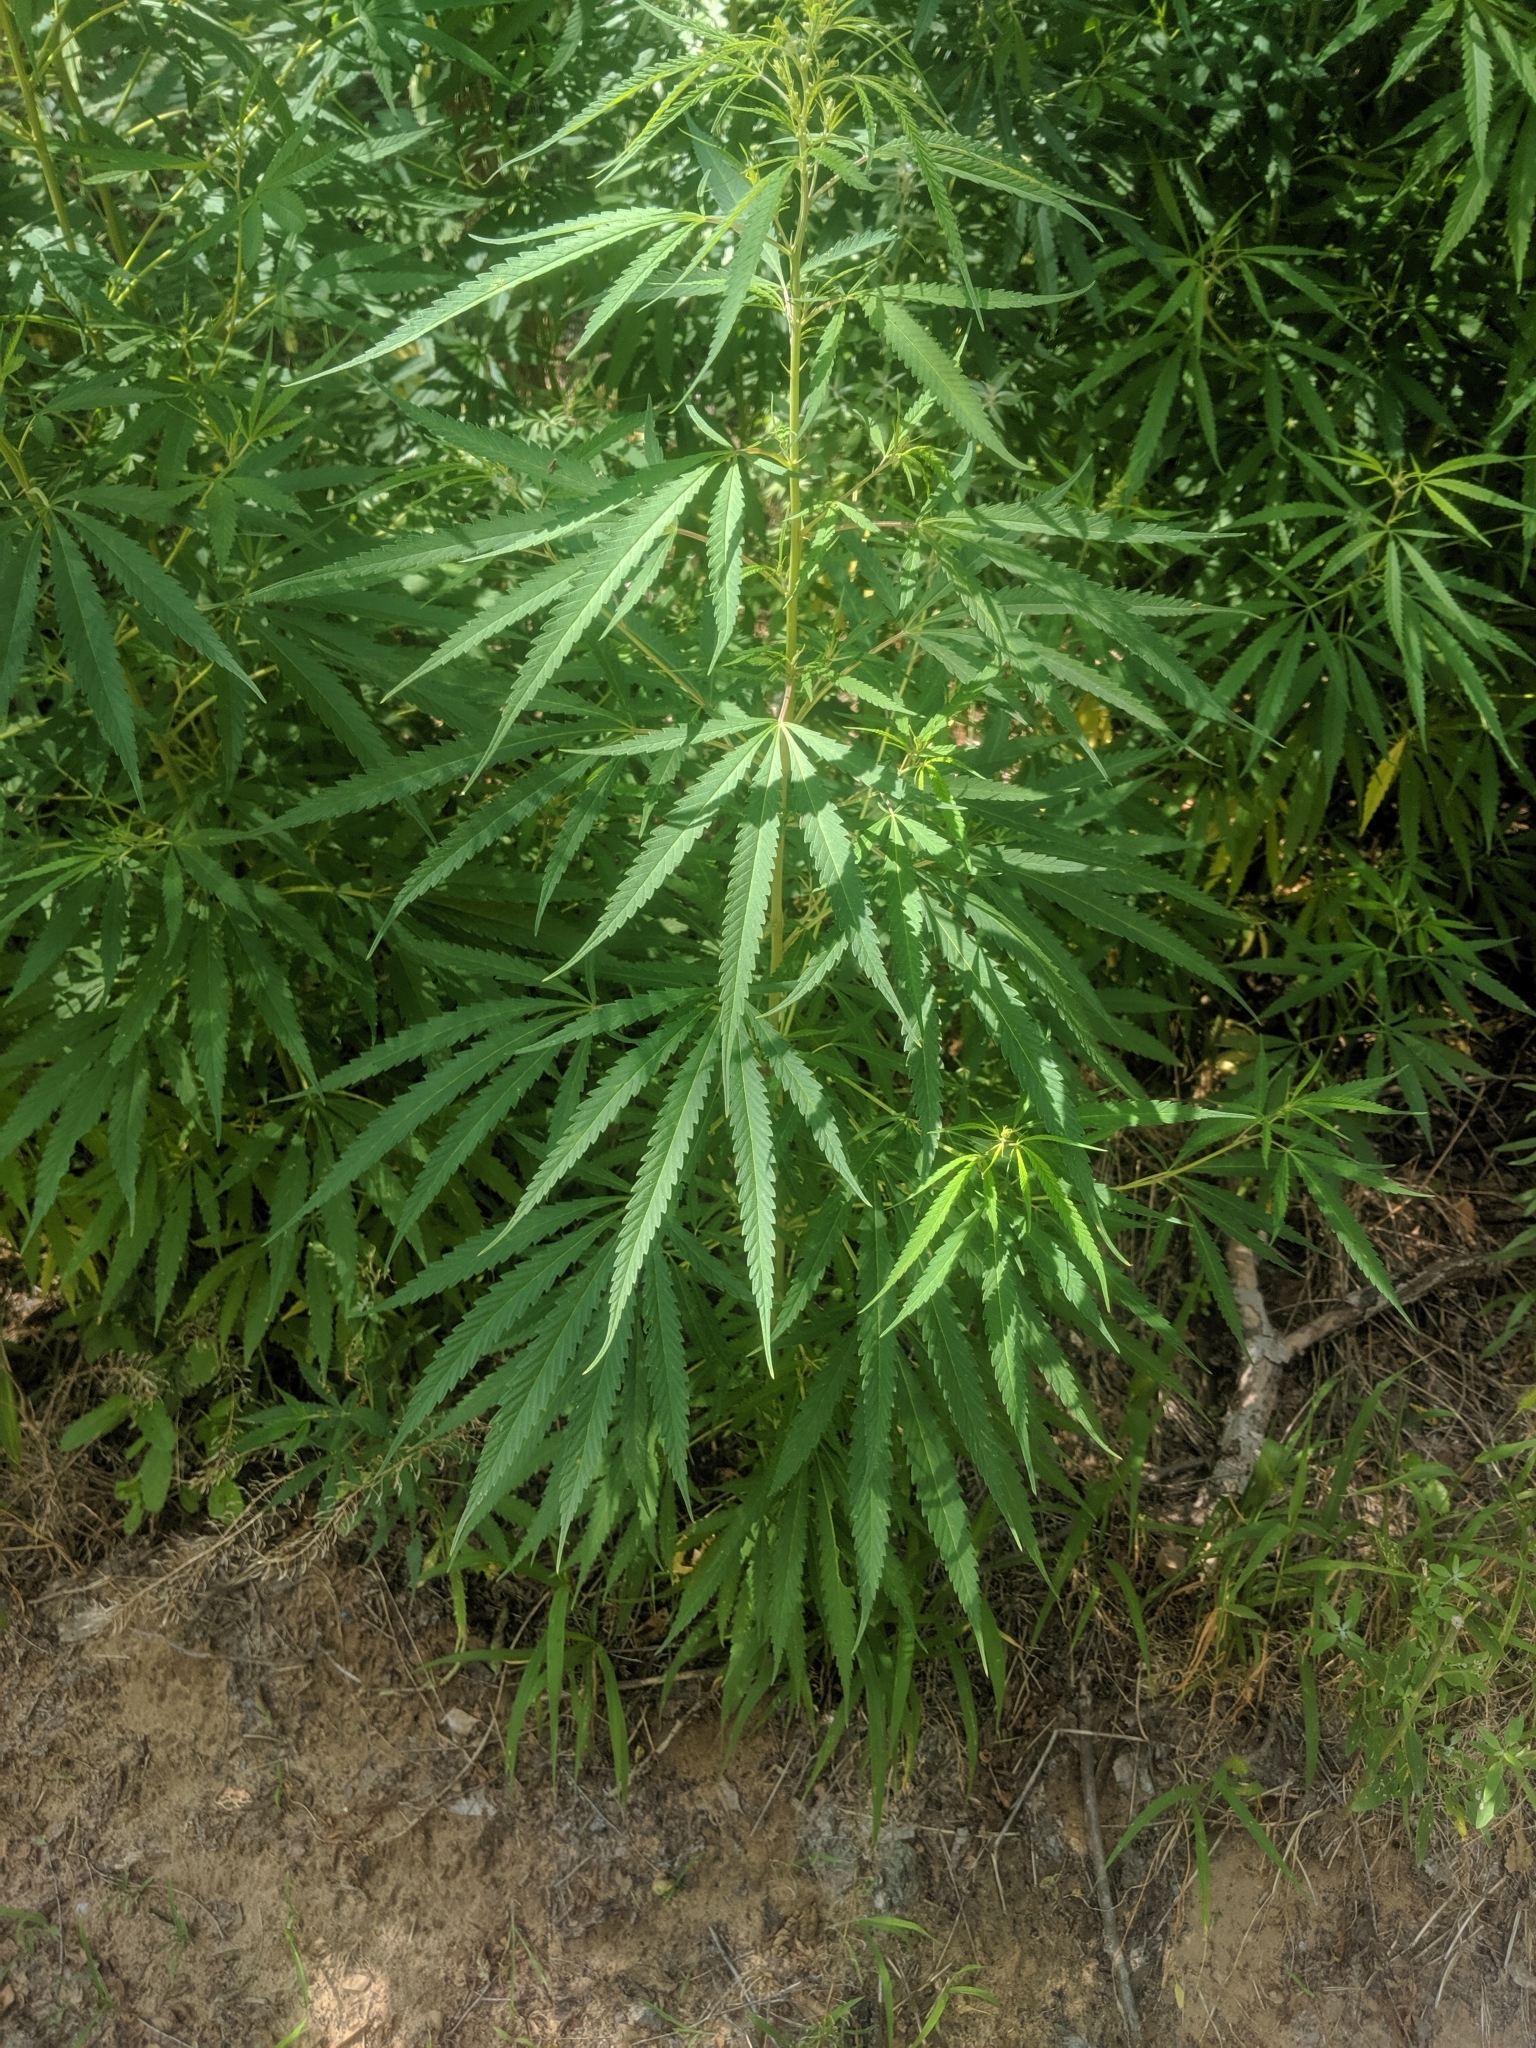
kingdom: Plantae
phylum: Tracheophyta
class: Magnoliopsida
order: Rosales
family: Cannabaceae
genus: Cannabis
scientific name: Cannabis sativa
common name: Hemp
